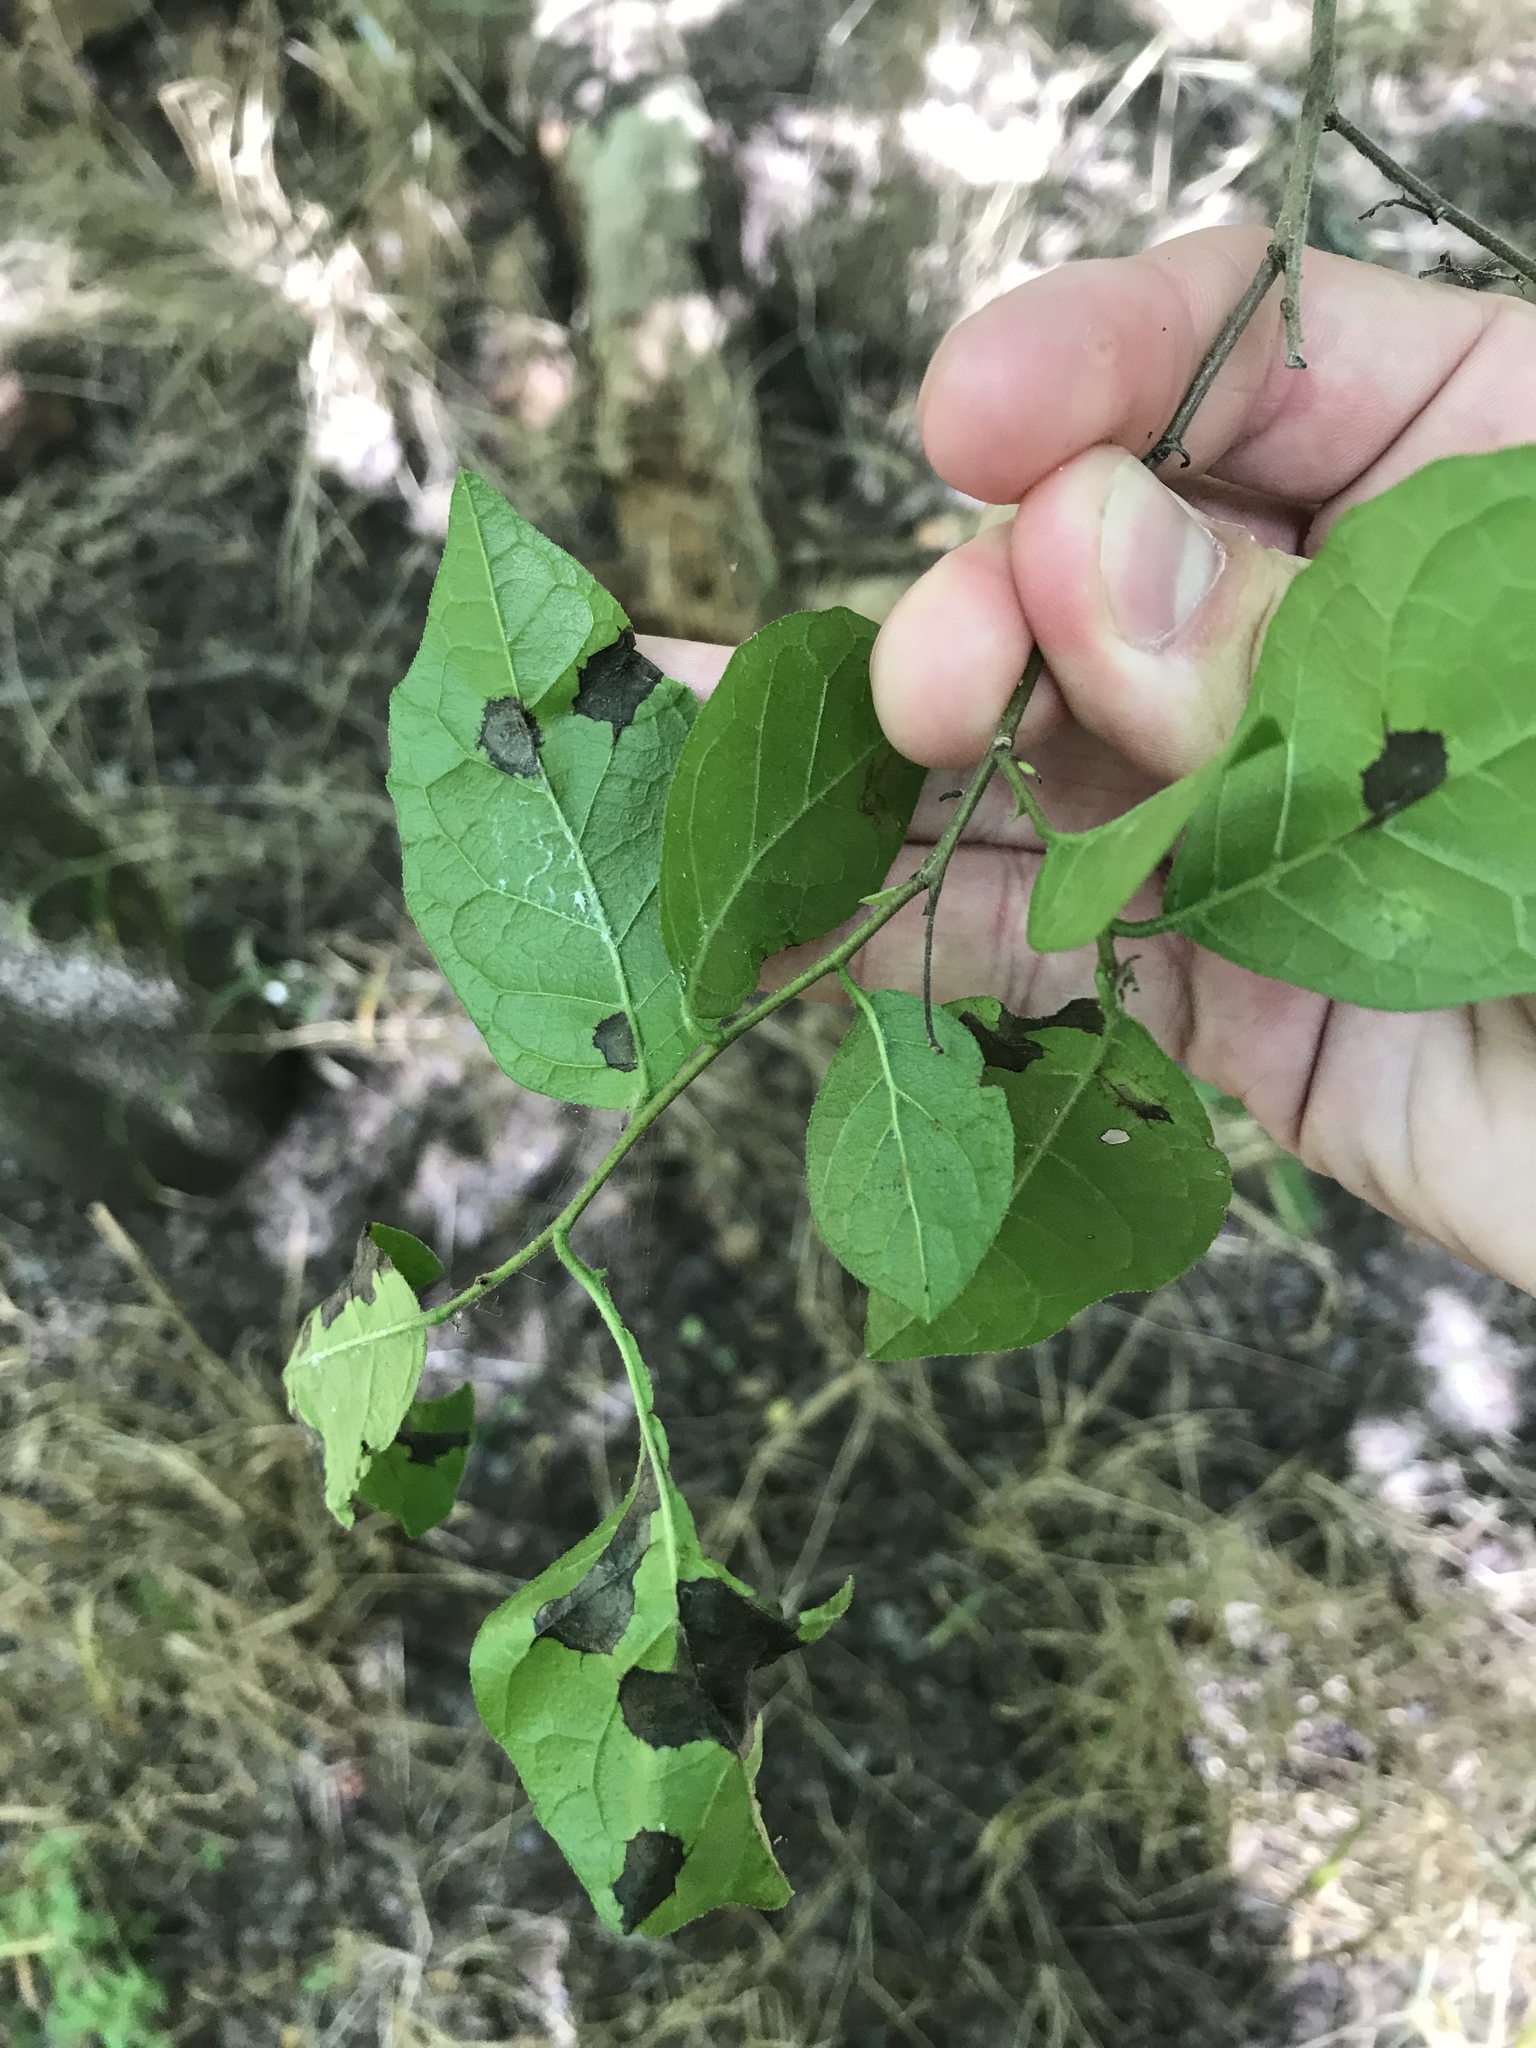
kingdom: Plantae
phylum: Tracheophyta
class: Magnoliopsida
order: Boraginales
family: Ehretiaceae
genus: Ehretia
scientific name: Ehretia anacua
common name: Sugarberry
